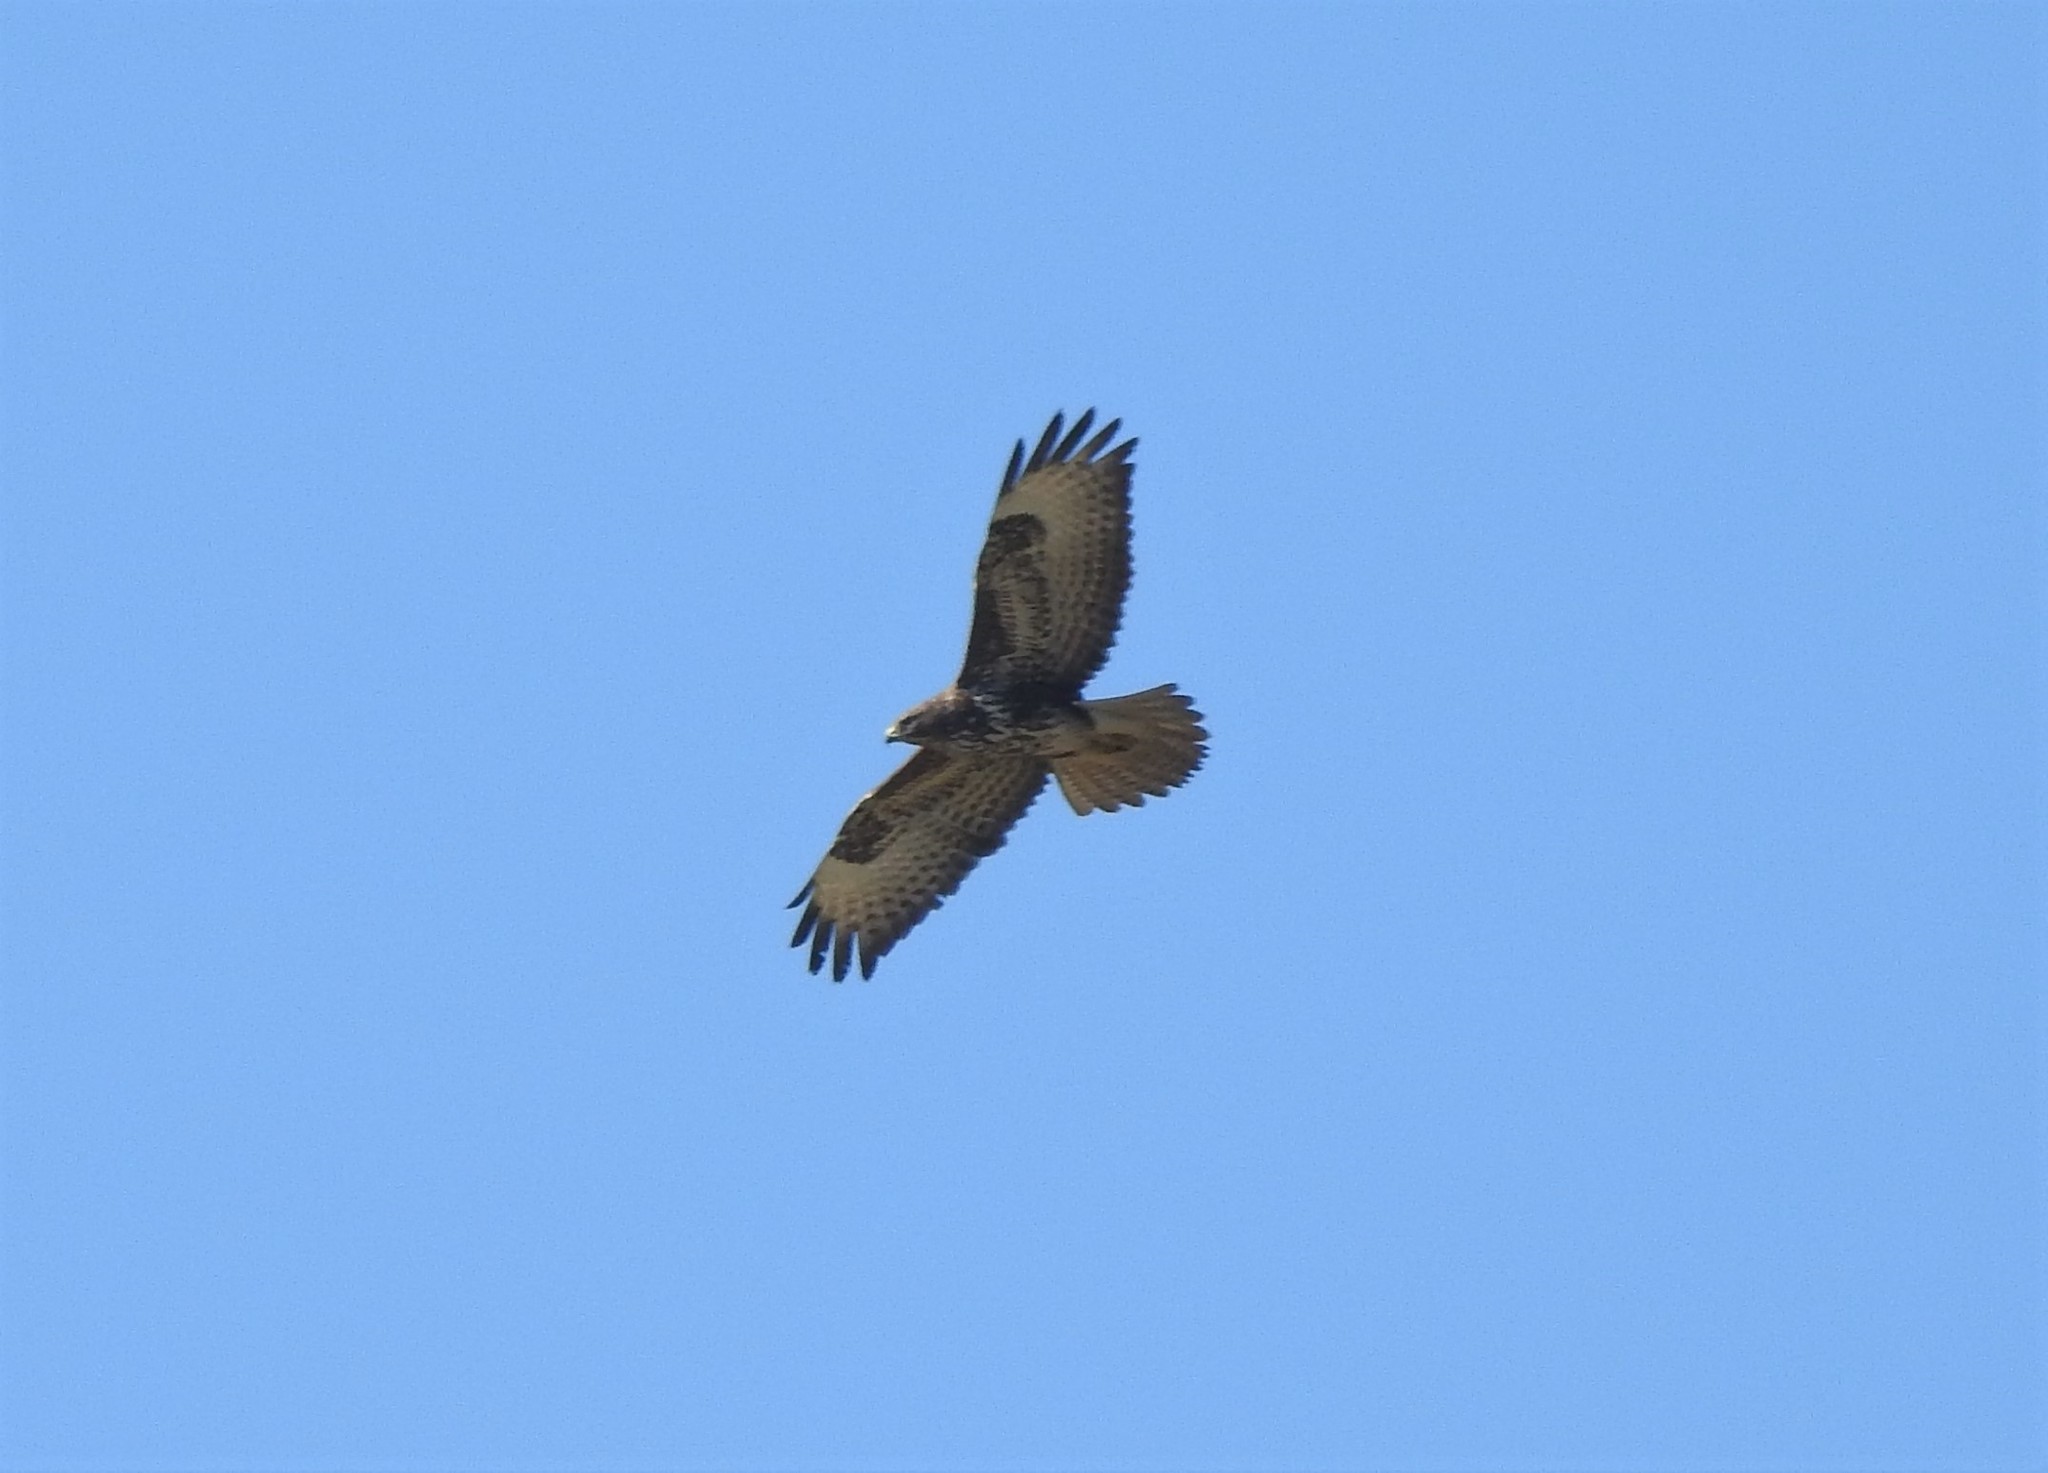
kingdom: Animalia
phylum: Chordata
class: Aves
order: Accipitriformes
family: Accipitridae
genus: Buteo
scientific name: Buteo buteo
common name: Common buzzard
